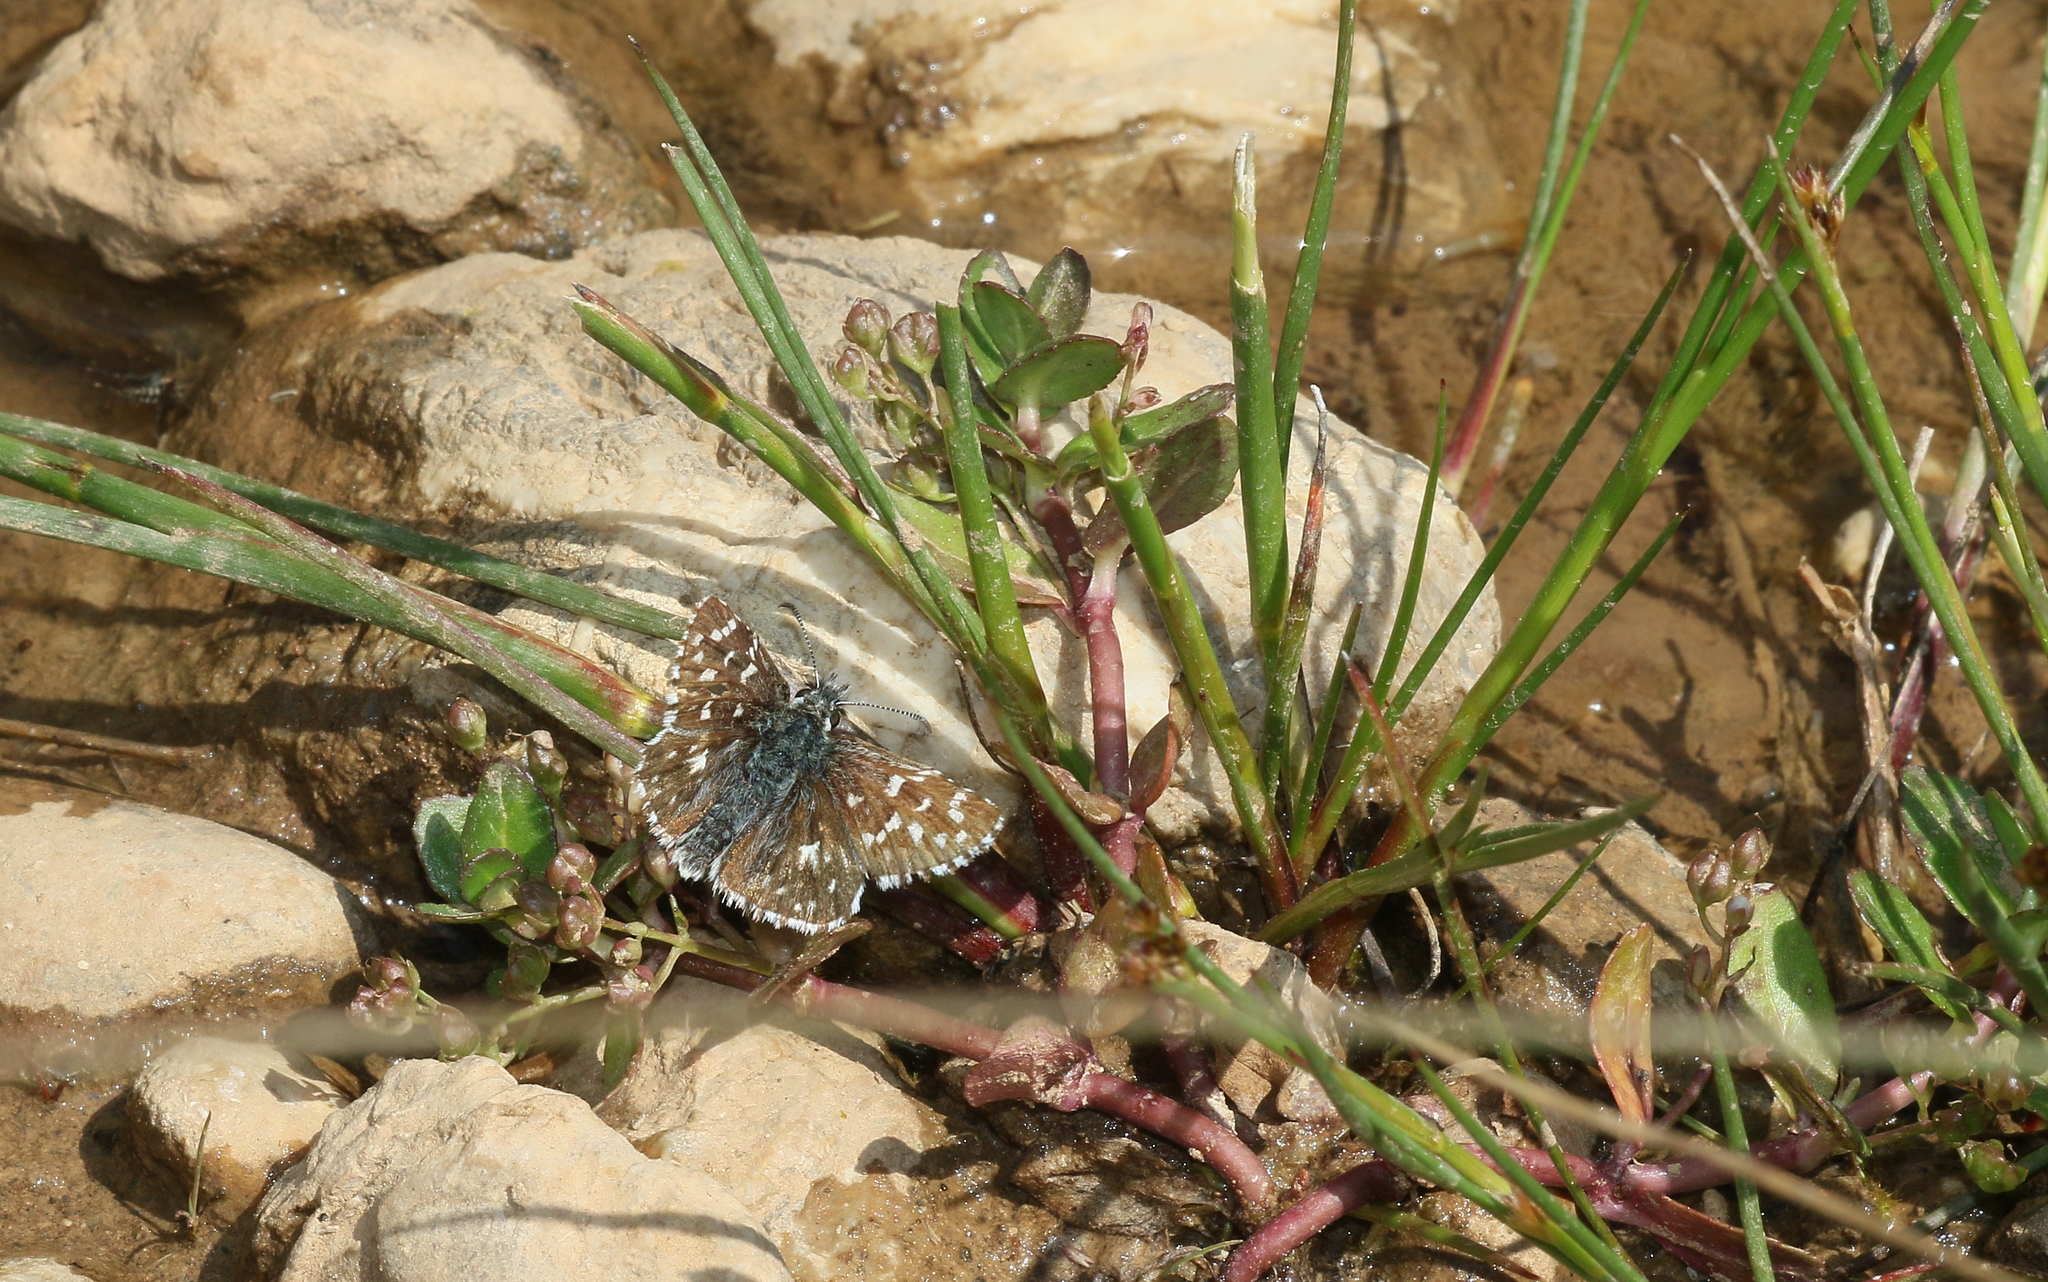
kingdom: Animalia
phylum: Arthropoda
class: Insecta
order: Lepidoptera
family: Hesperiidae
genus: Pyrgus
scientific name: Pyrgus malvae
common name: Grizzled skipper
